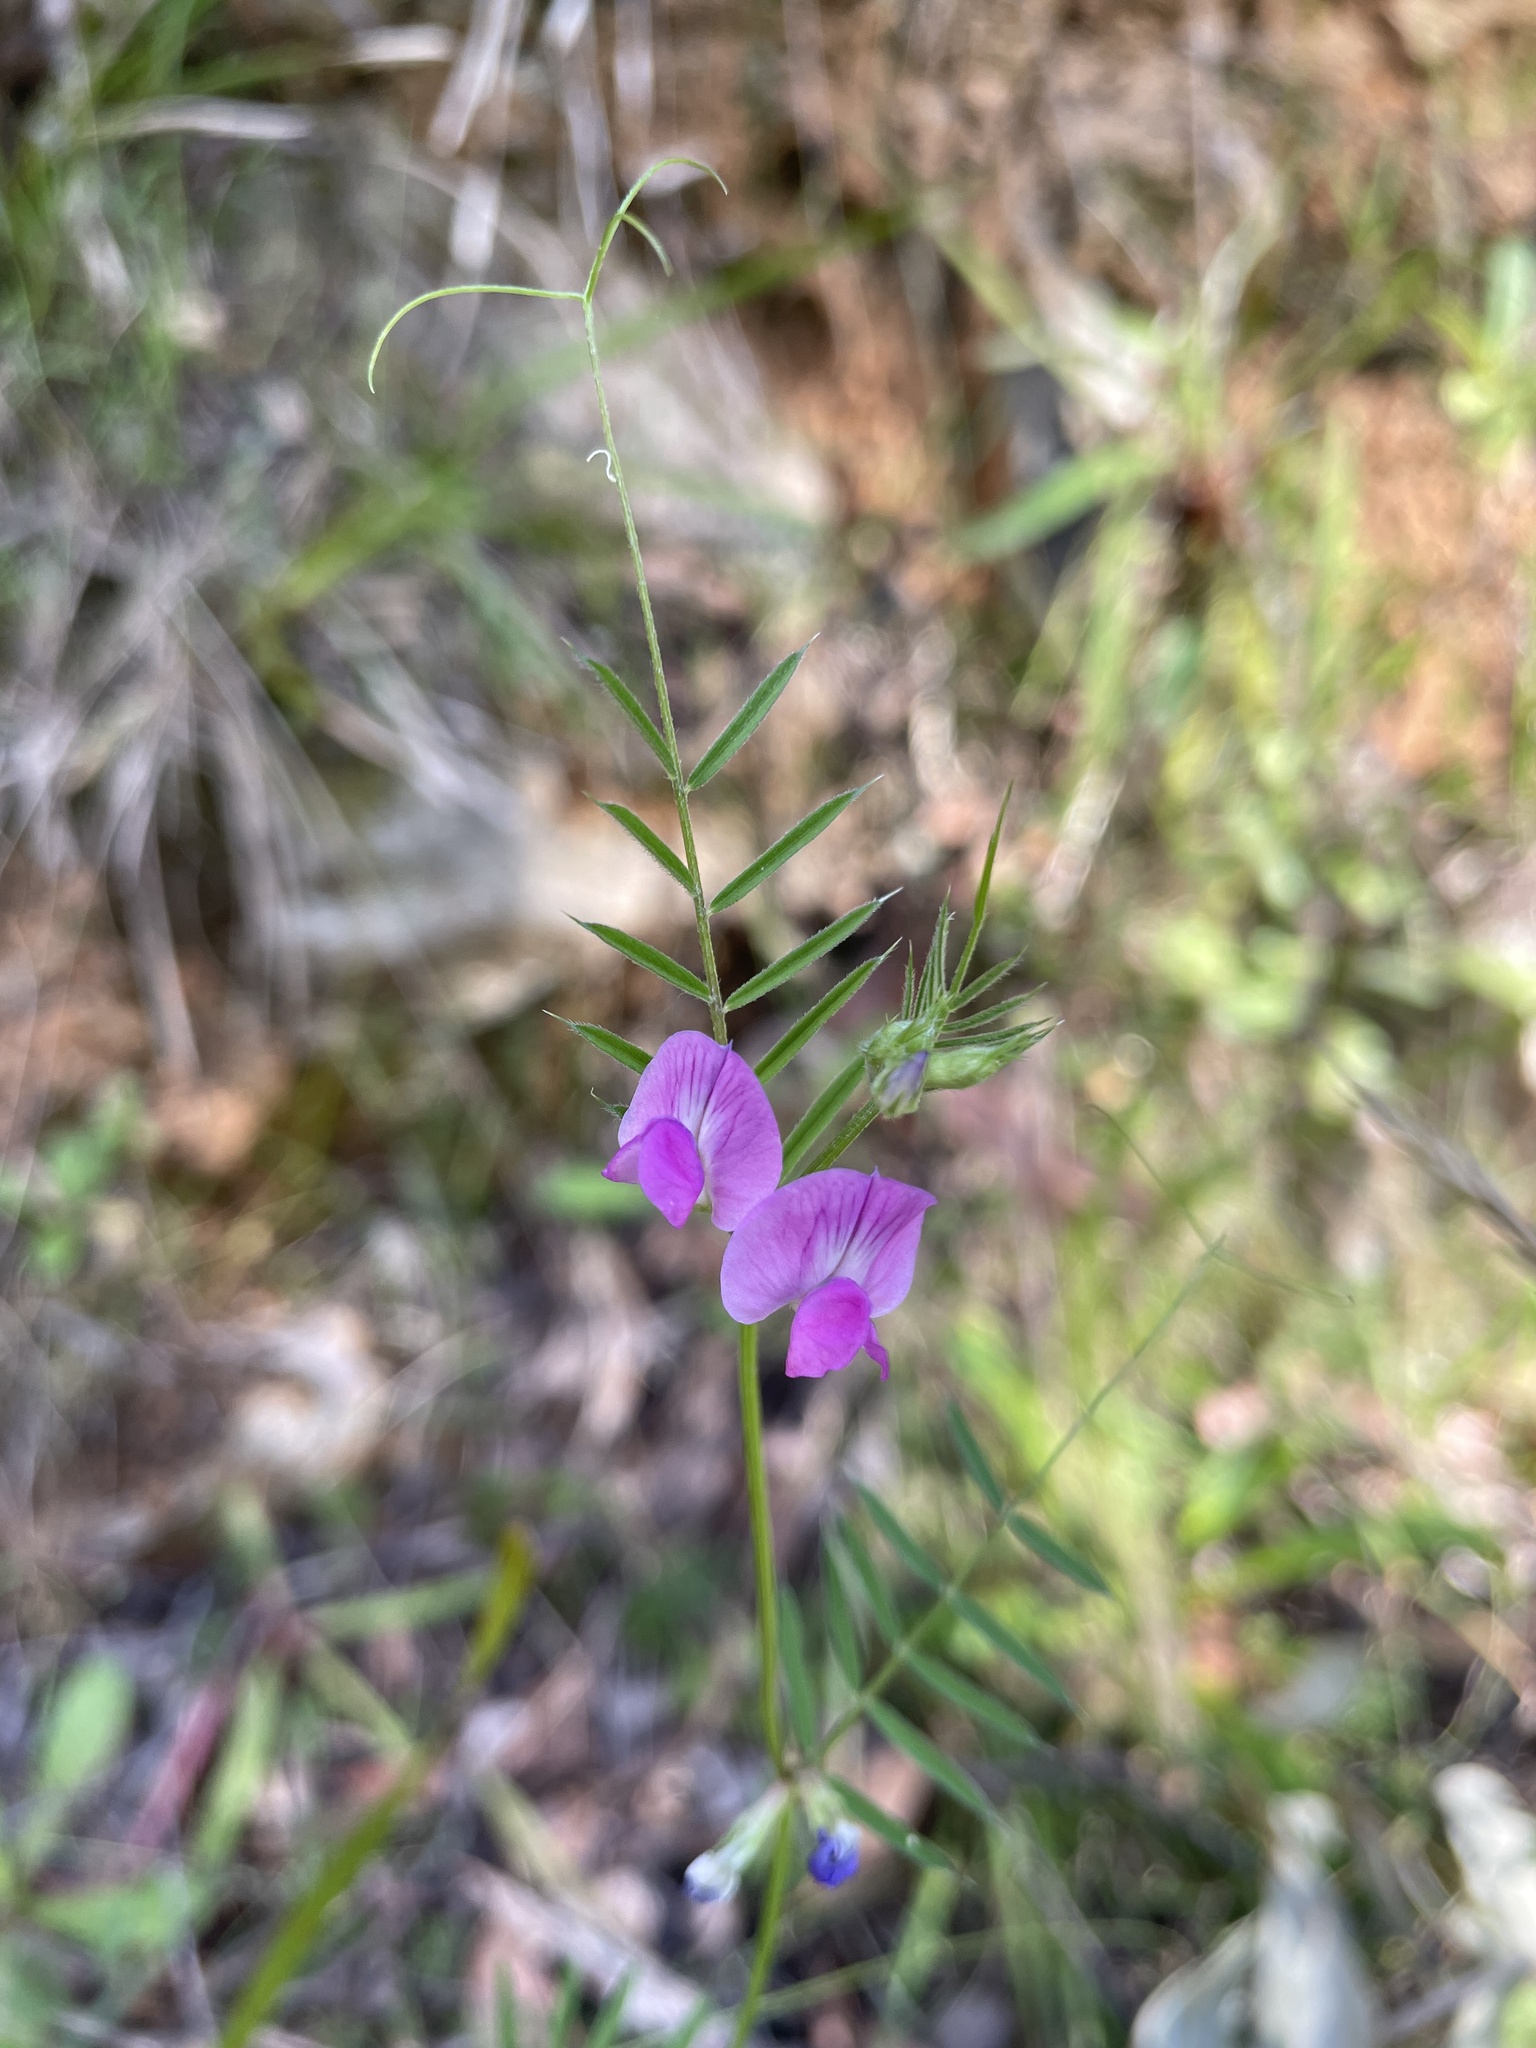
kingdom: Plantae
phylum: Tracheophyta
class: Magnoliopsida
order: Fabales
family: Fabaceae
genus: Vicia
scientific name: Vicia sativa
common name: Garden vetch
